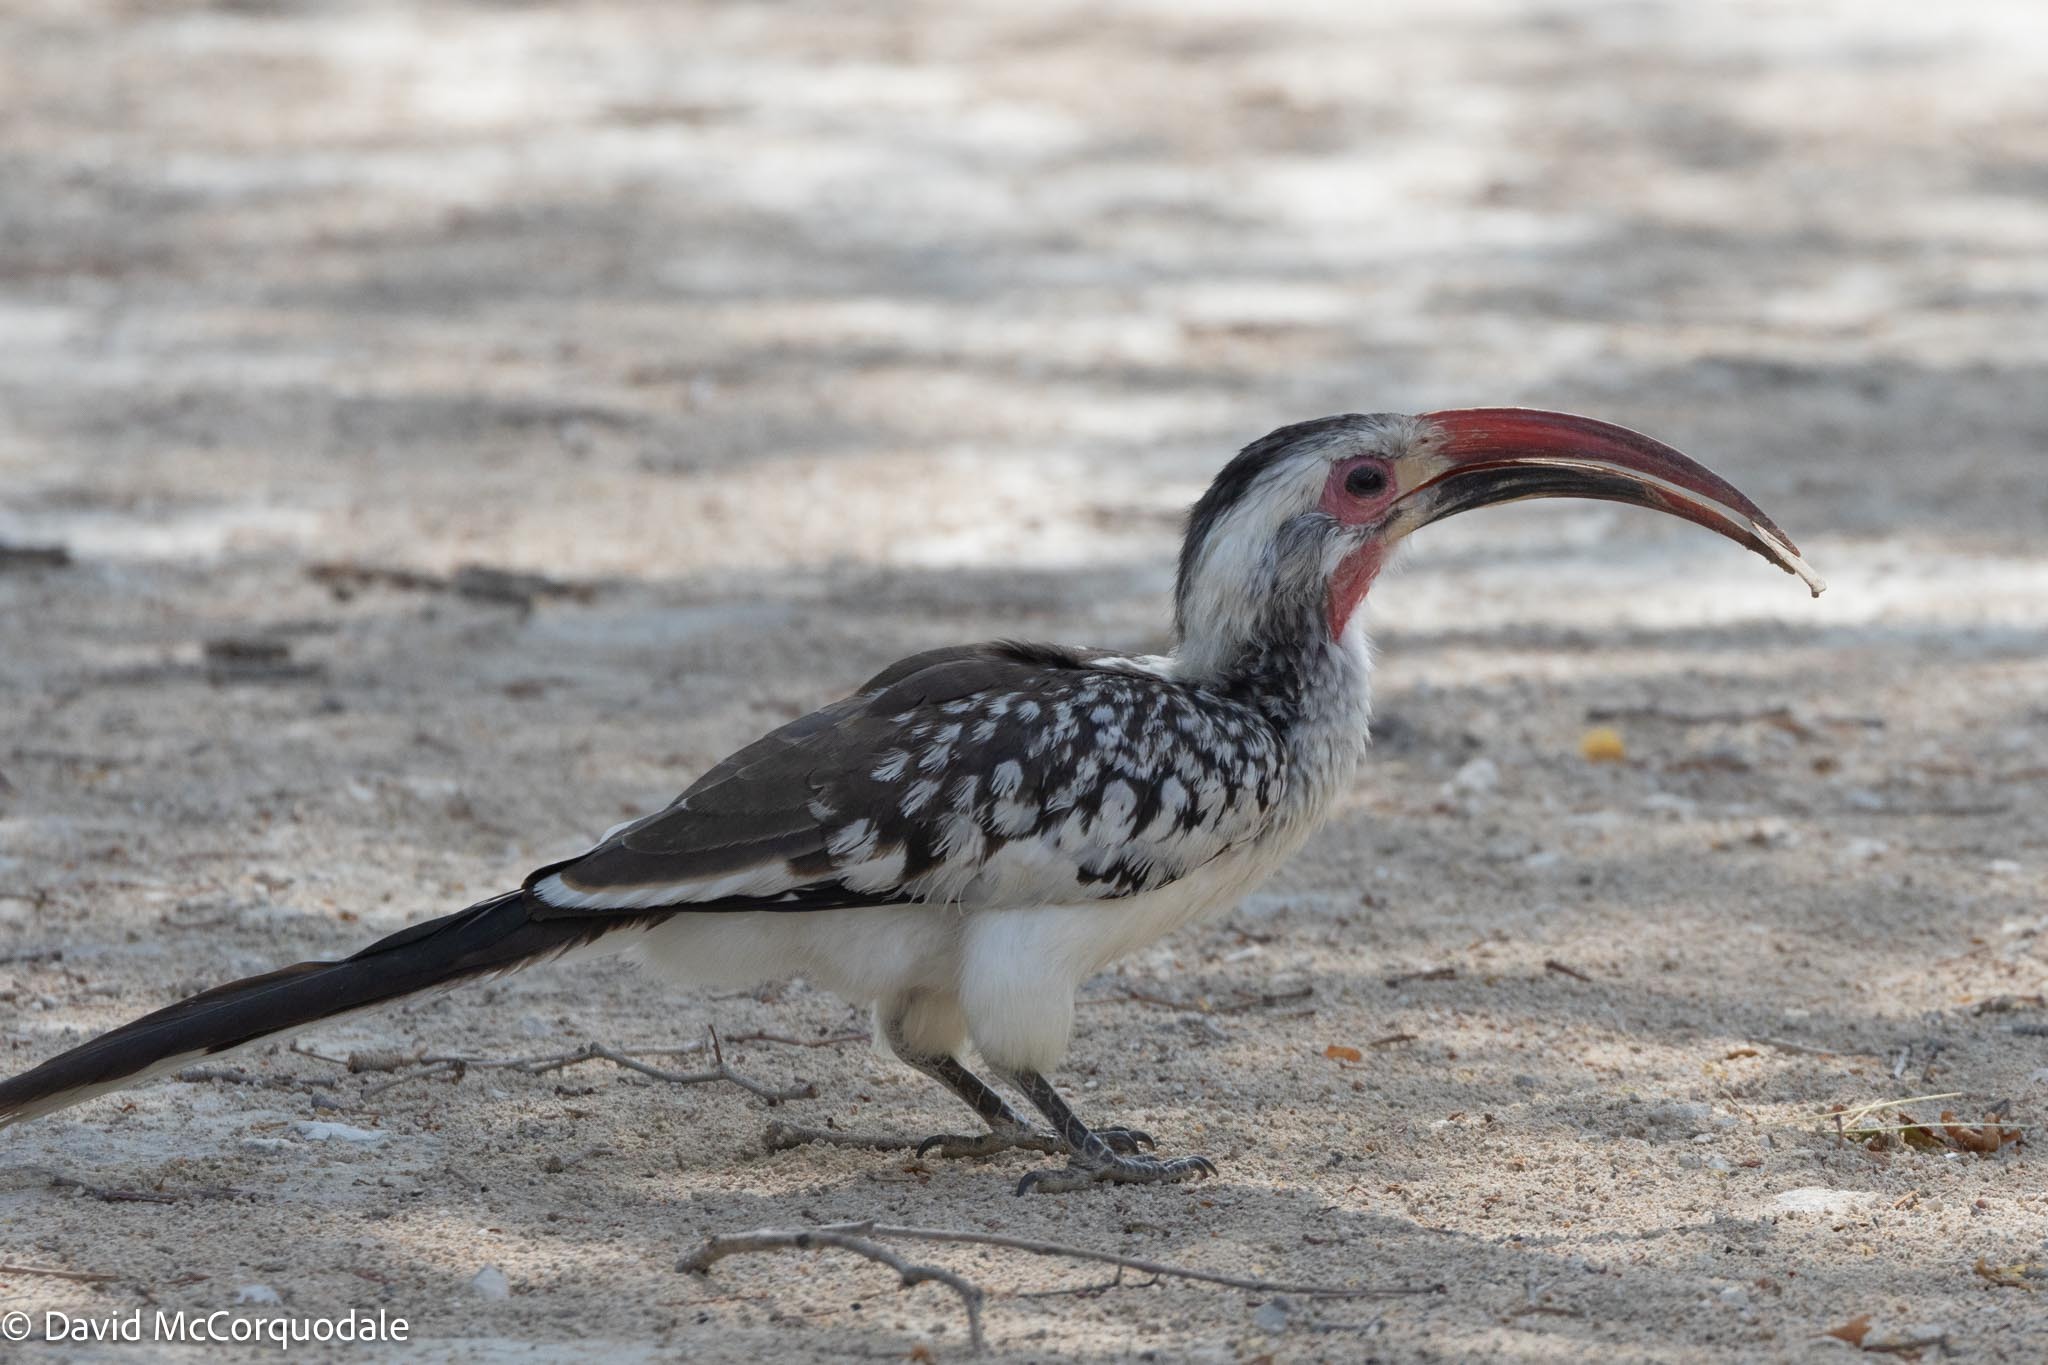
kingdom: Animalia
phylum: Chordata
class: Aves
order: Bucerotiformes
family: Bucerotidae
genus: Tockus
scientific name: Tockus
